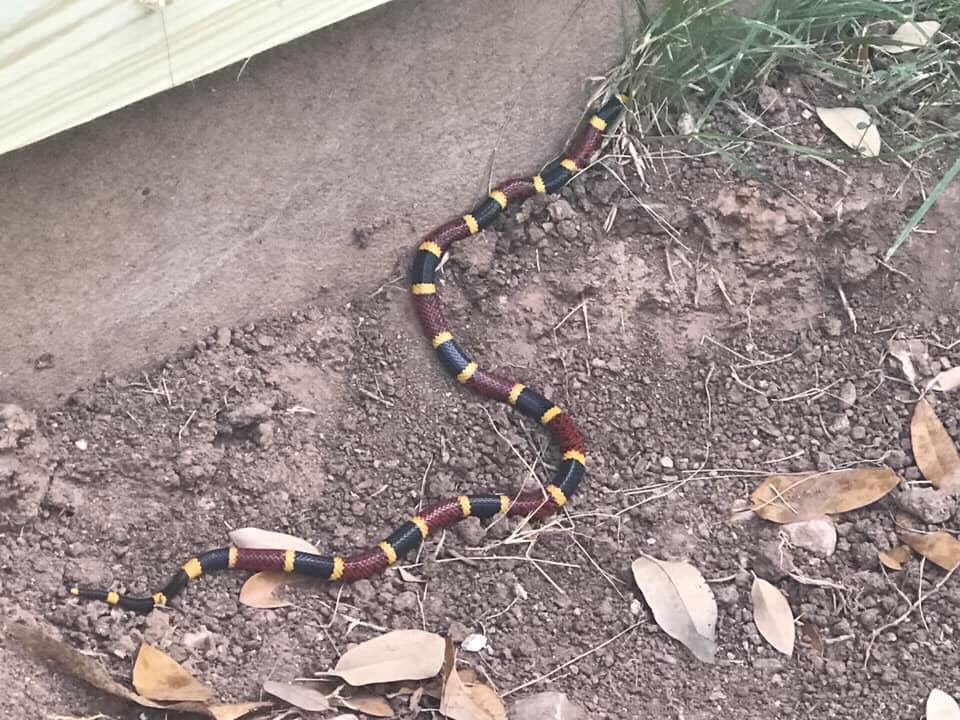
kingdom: Animalia
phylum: Chordata
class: Squamata
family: Elapidae
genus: Micrurus
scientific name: Micrurus tener
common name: Texas coral snake
